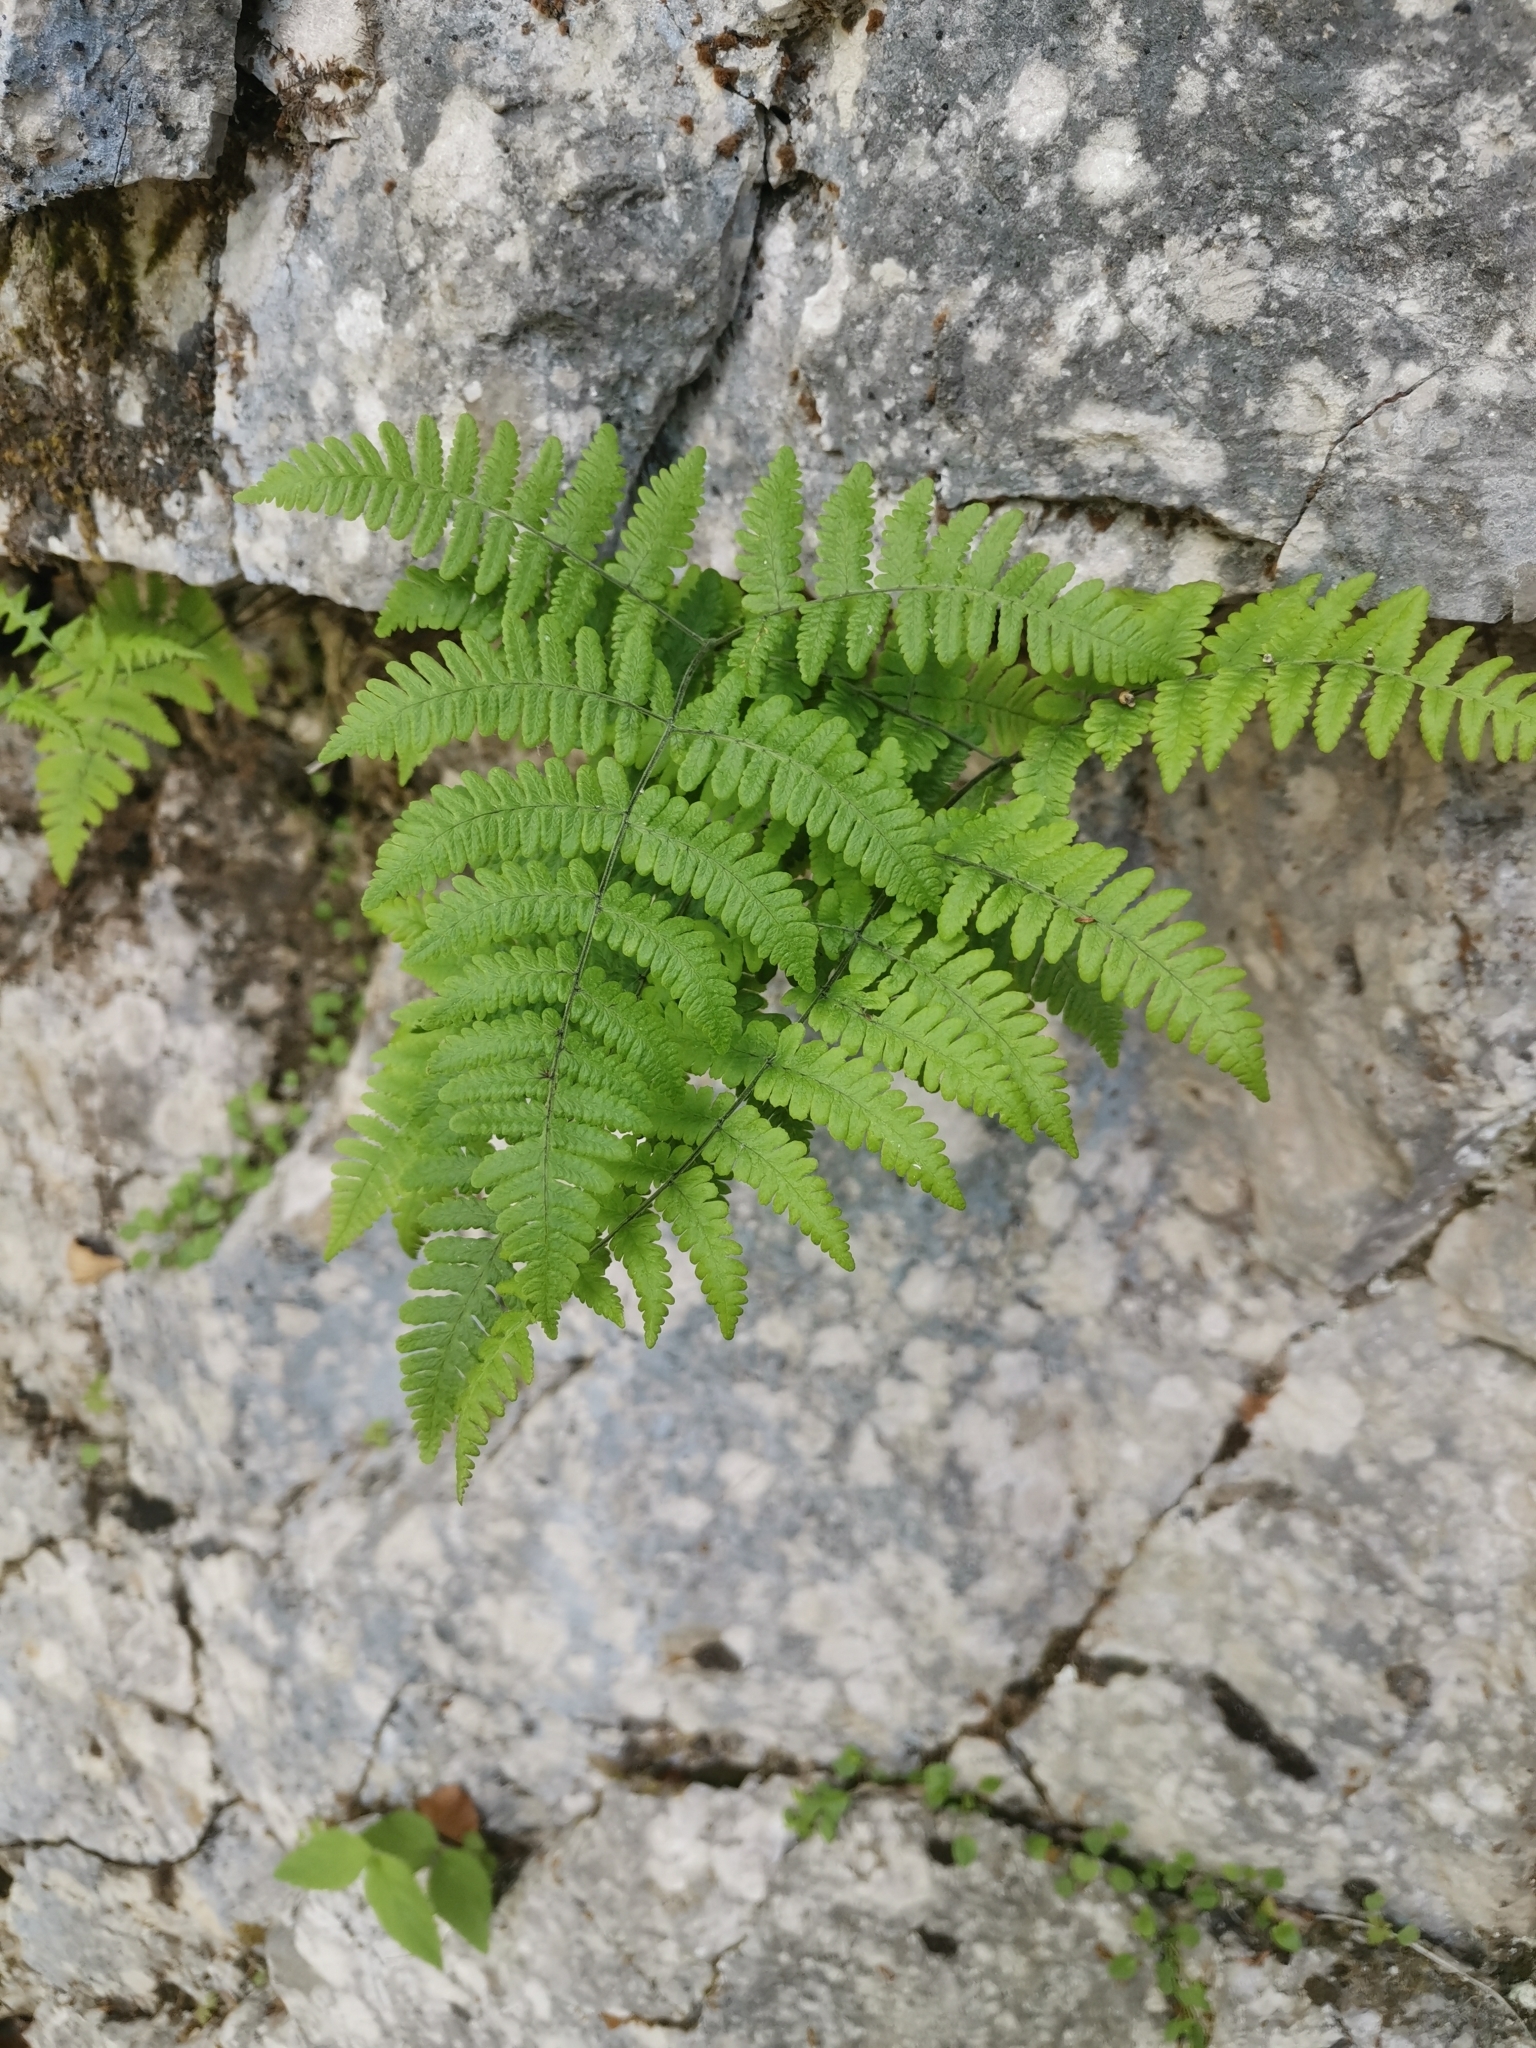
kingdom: Plantae
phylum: Tracheophyta
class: Polypodiopsida
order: Polypodiales
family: Cystopteridaceae
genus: Gymnocarpium
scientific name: Gymnocarpium robertianum
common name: Limestone fern
